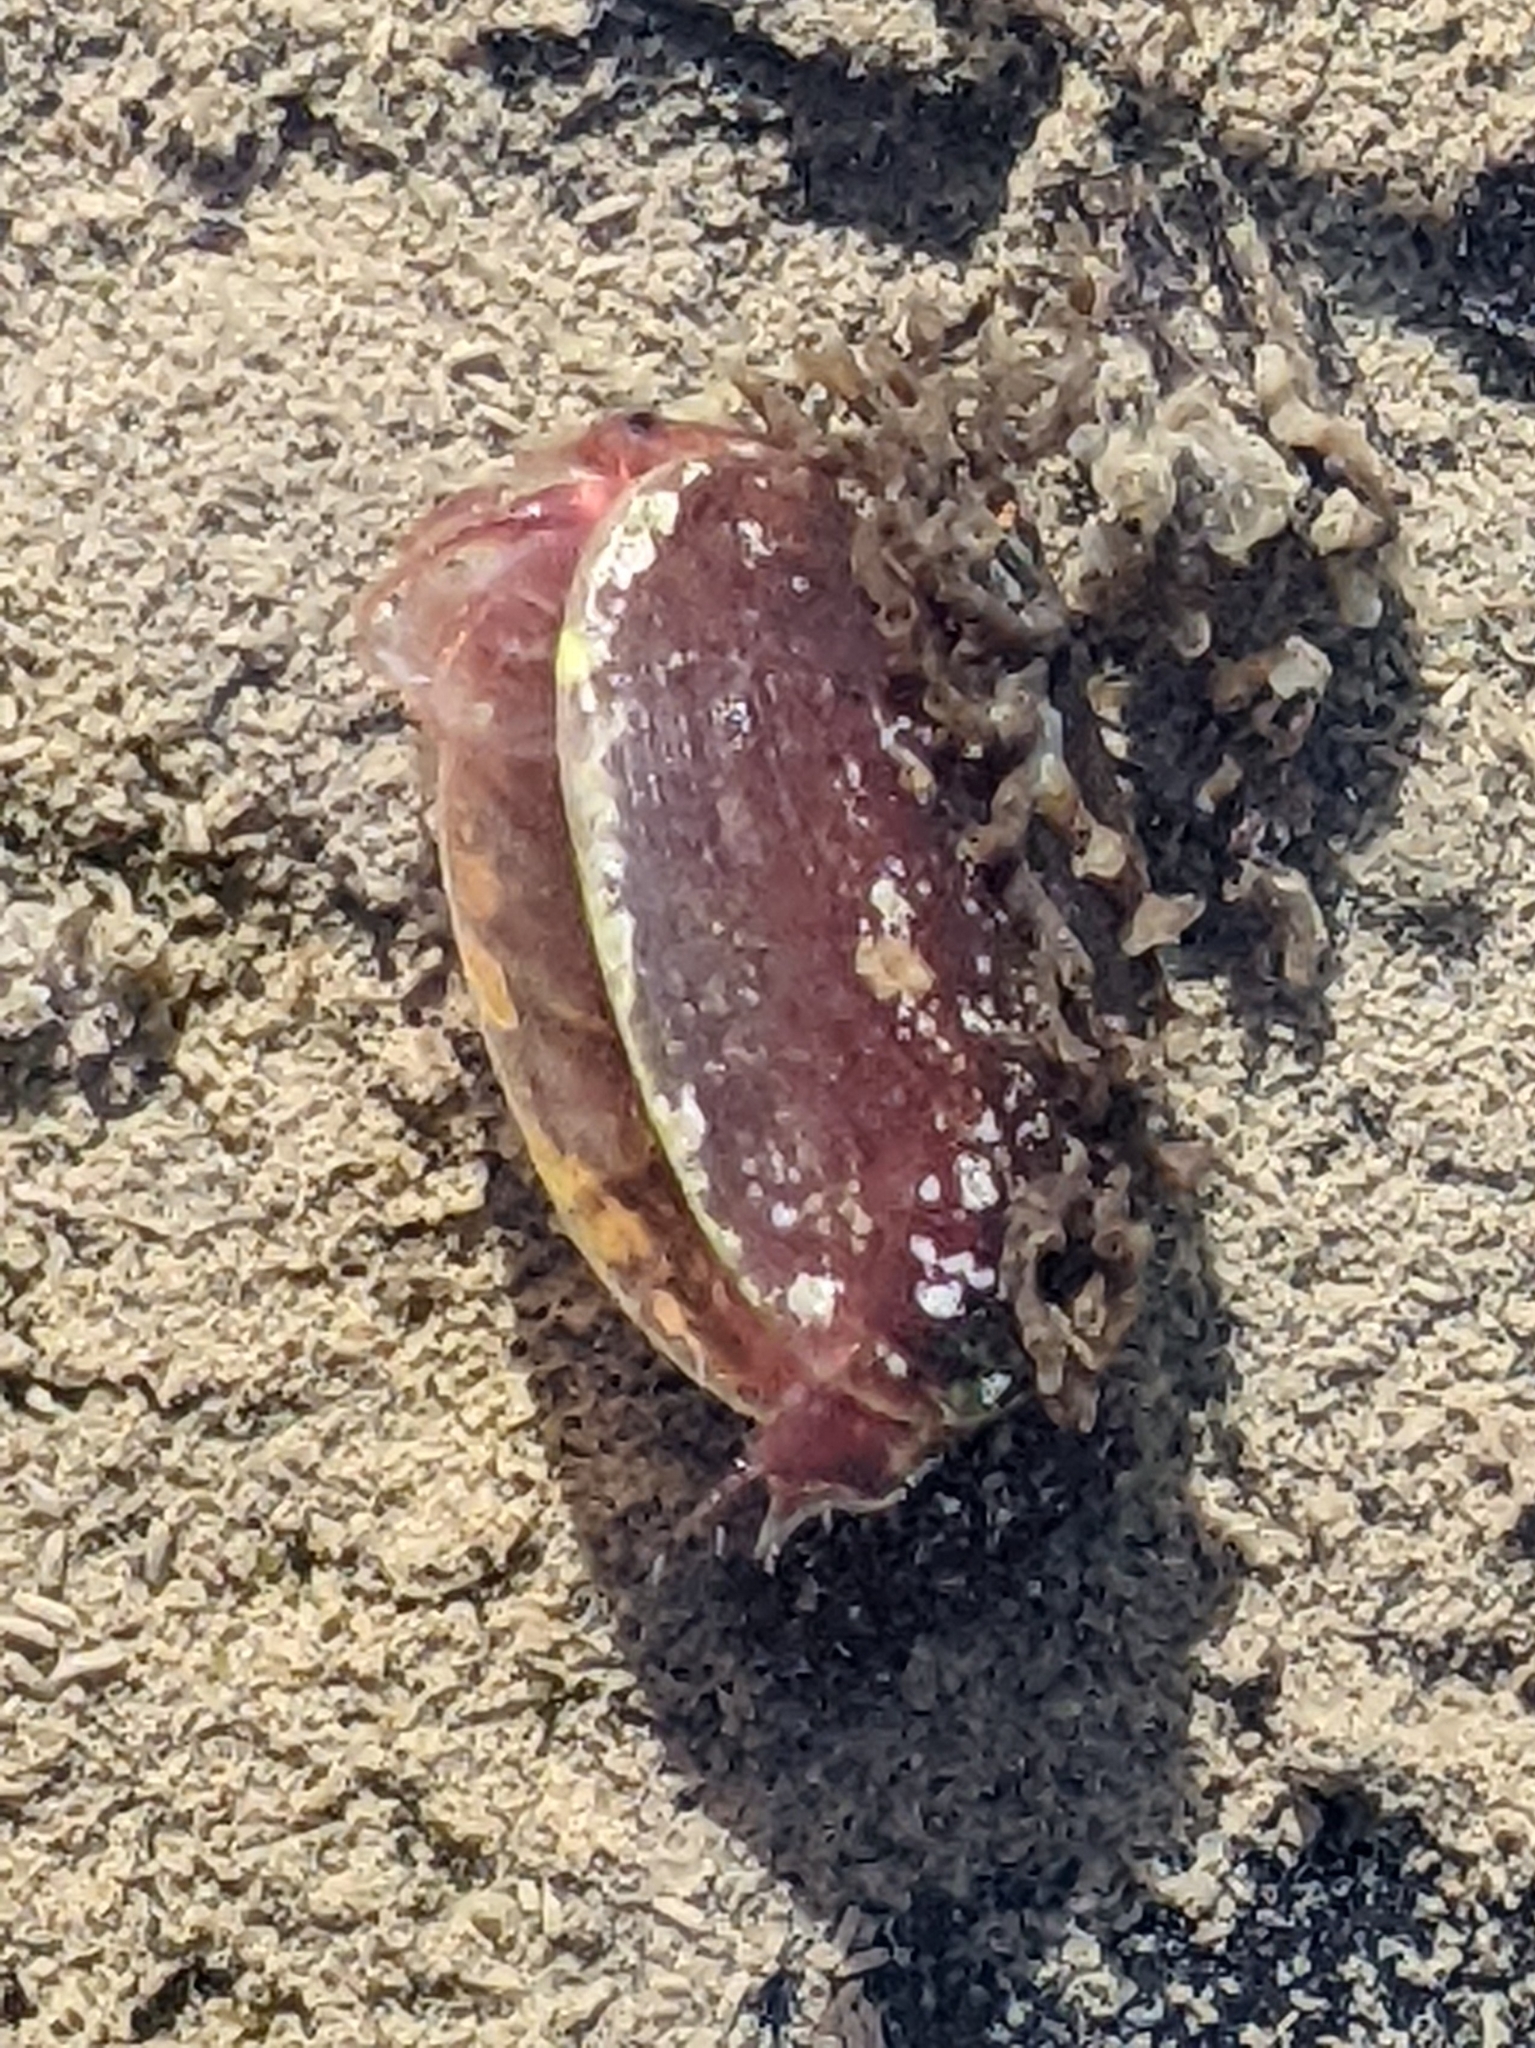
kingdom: Animalia
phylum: Arthropoda
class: Branchiopoda
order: Diplostraca
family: Cyzicidae
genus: Cyzicus
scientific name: Cyzicus californicus
